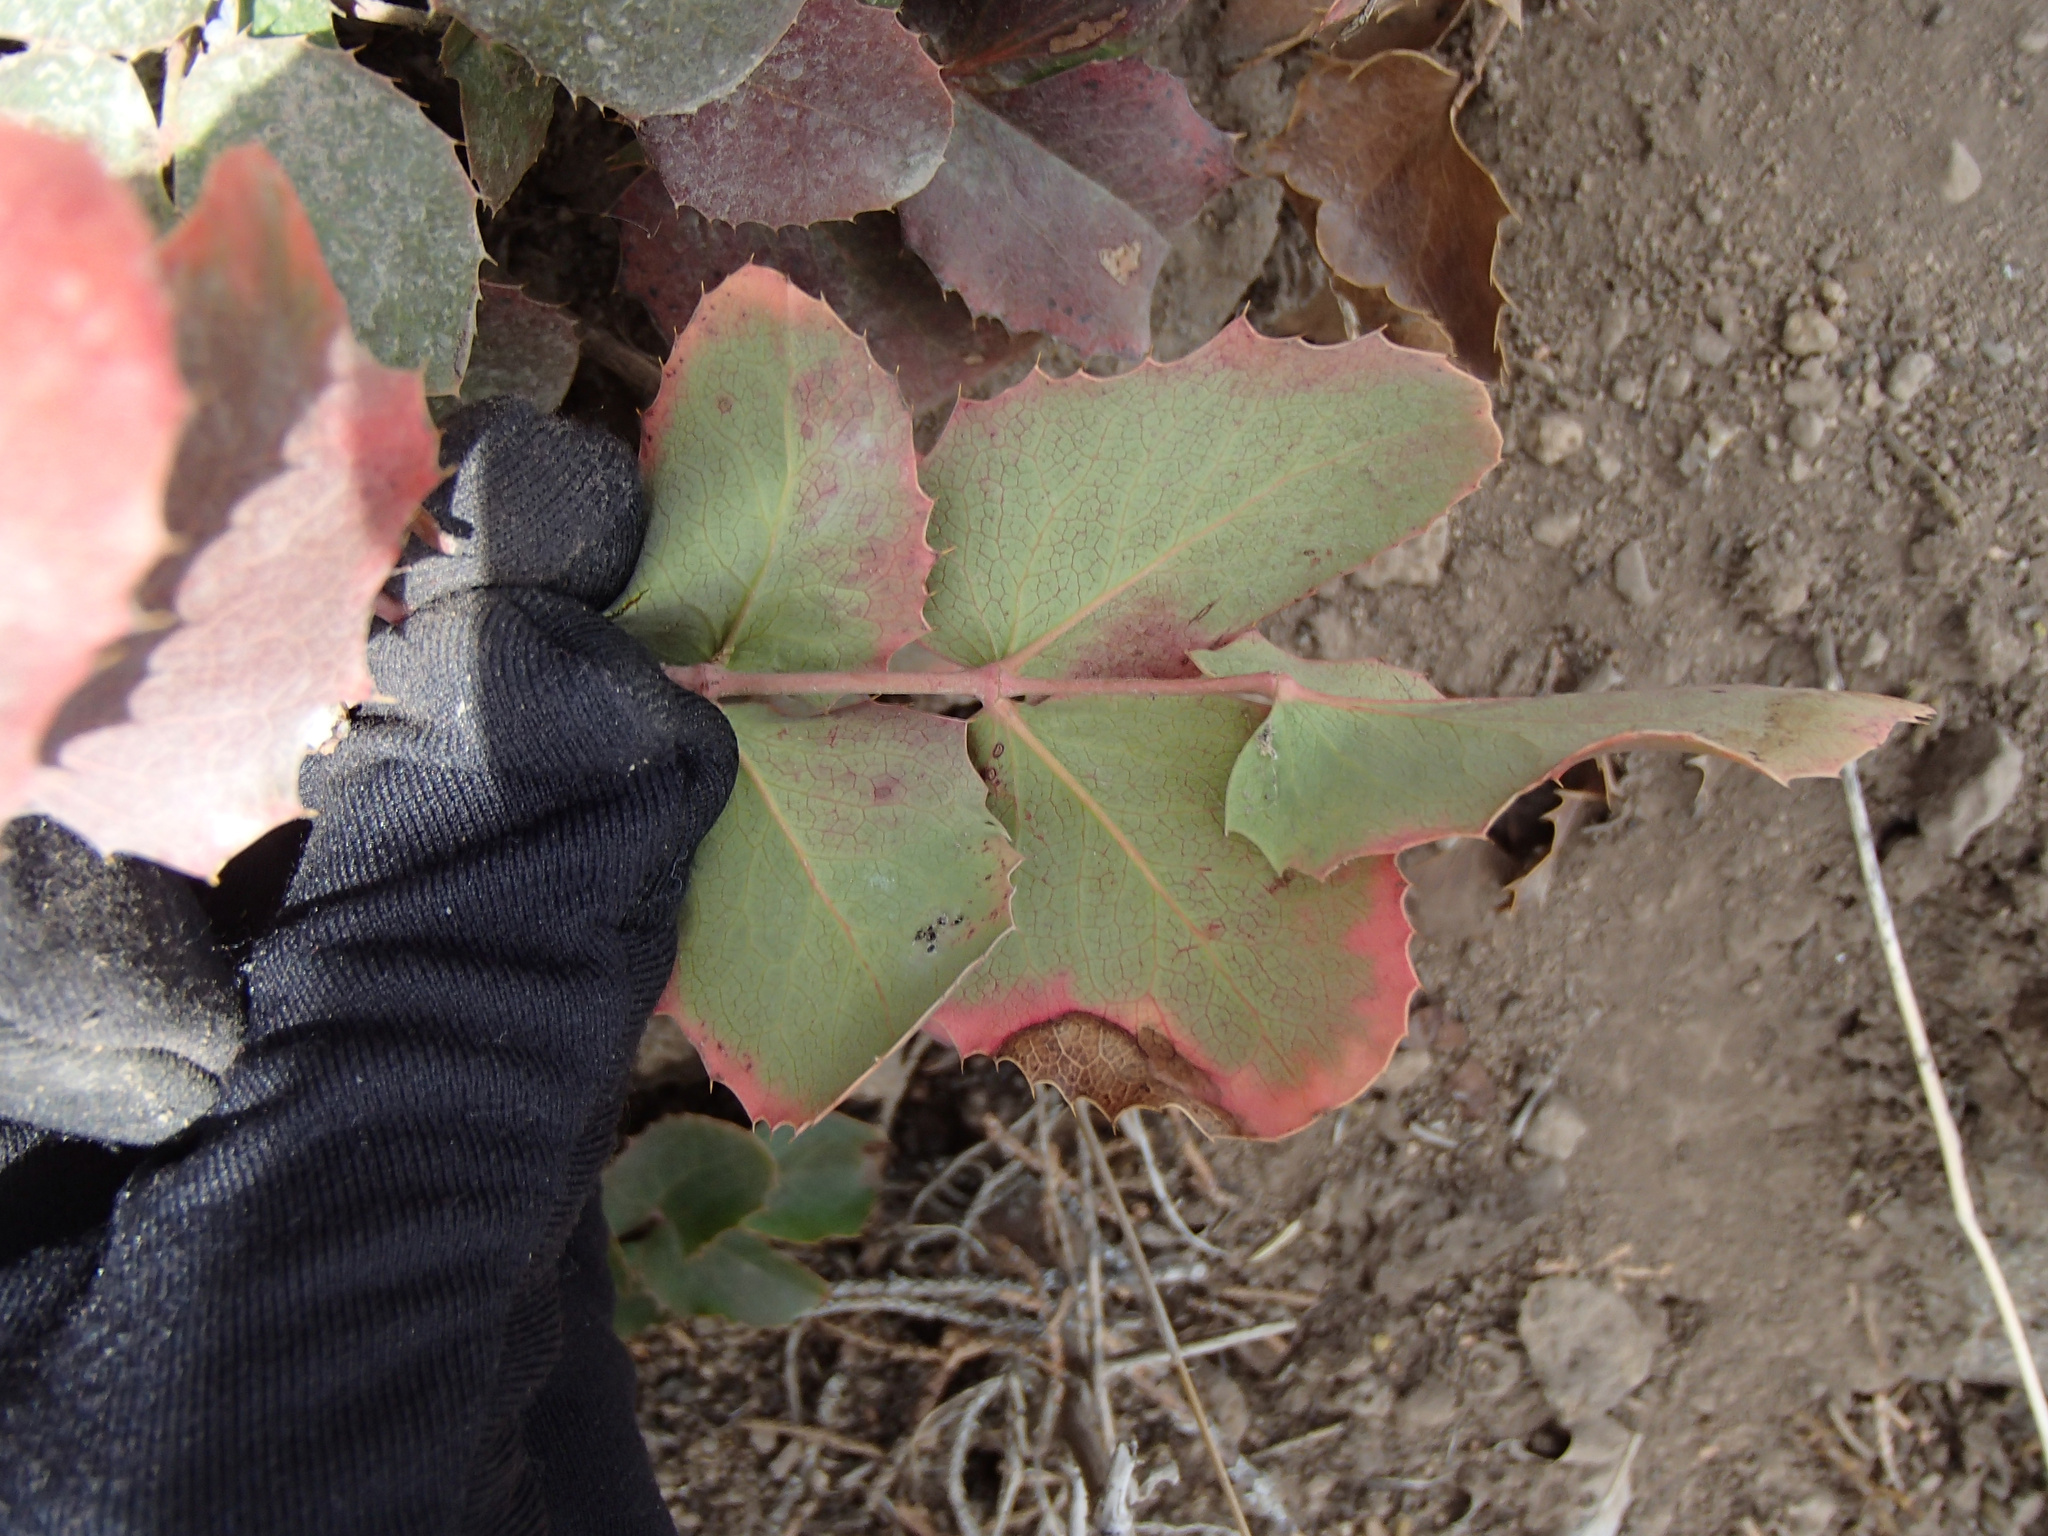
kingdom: Plantae
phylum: Tracheophyta
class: Magnoliopsida
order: Ranunculales
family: Berberidaceae
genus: Mahonia
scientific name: Mahonia repens
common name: Creeping oregon-grape
